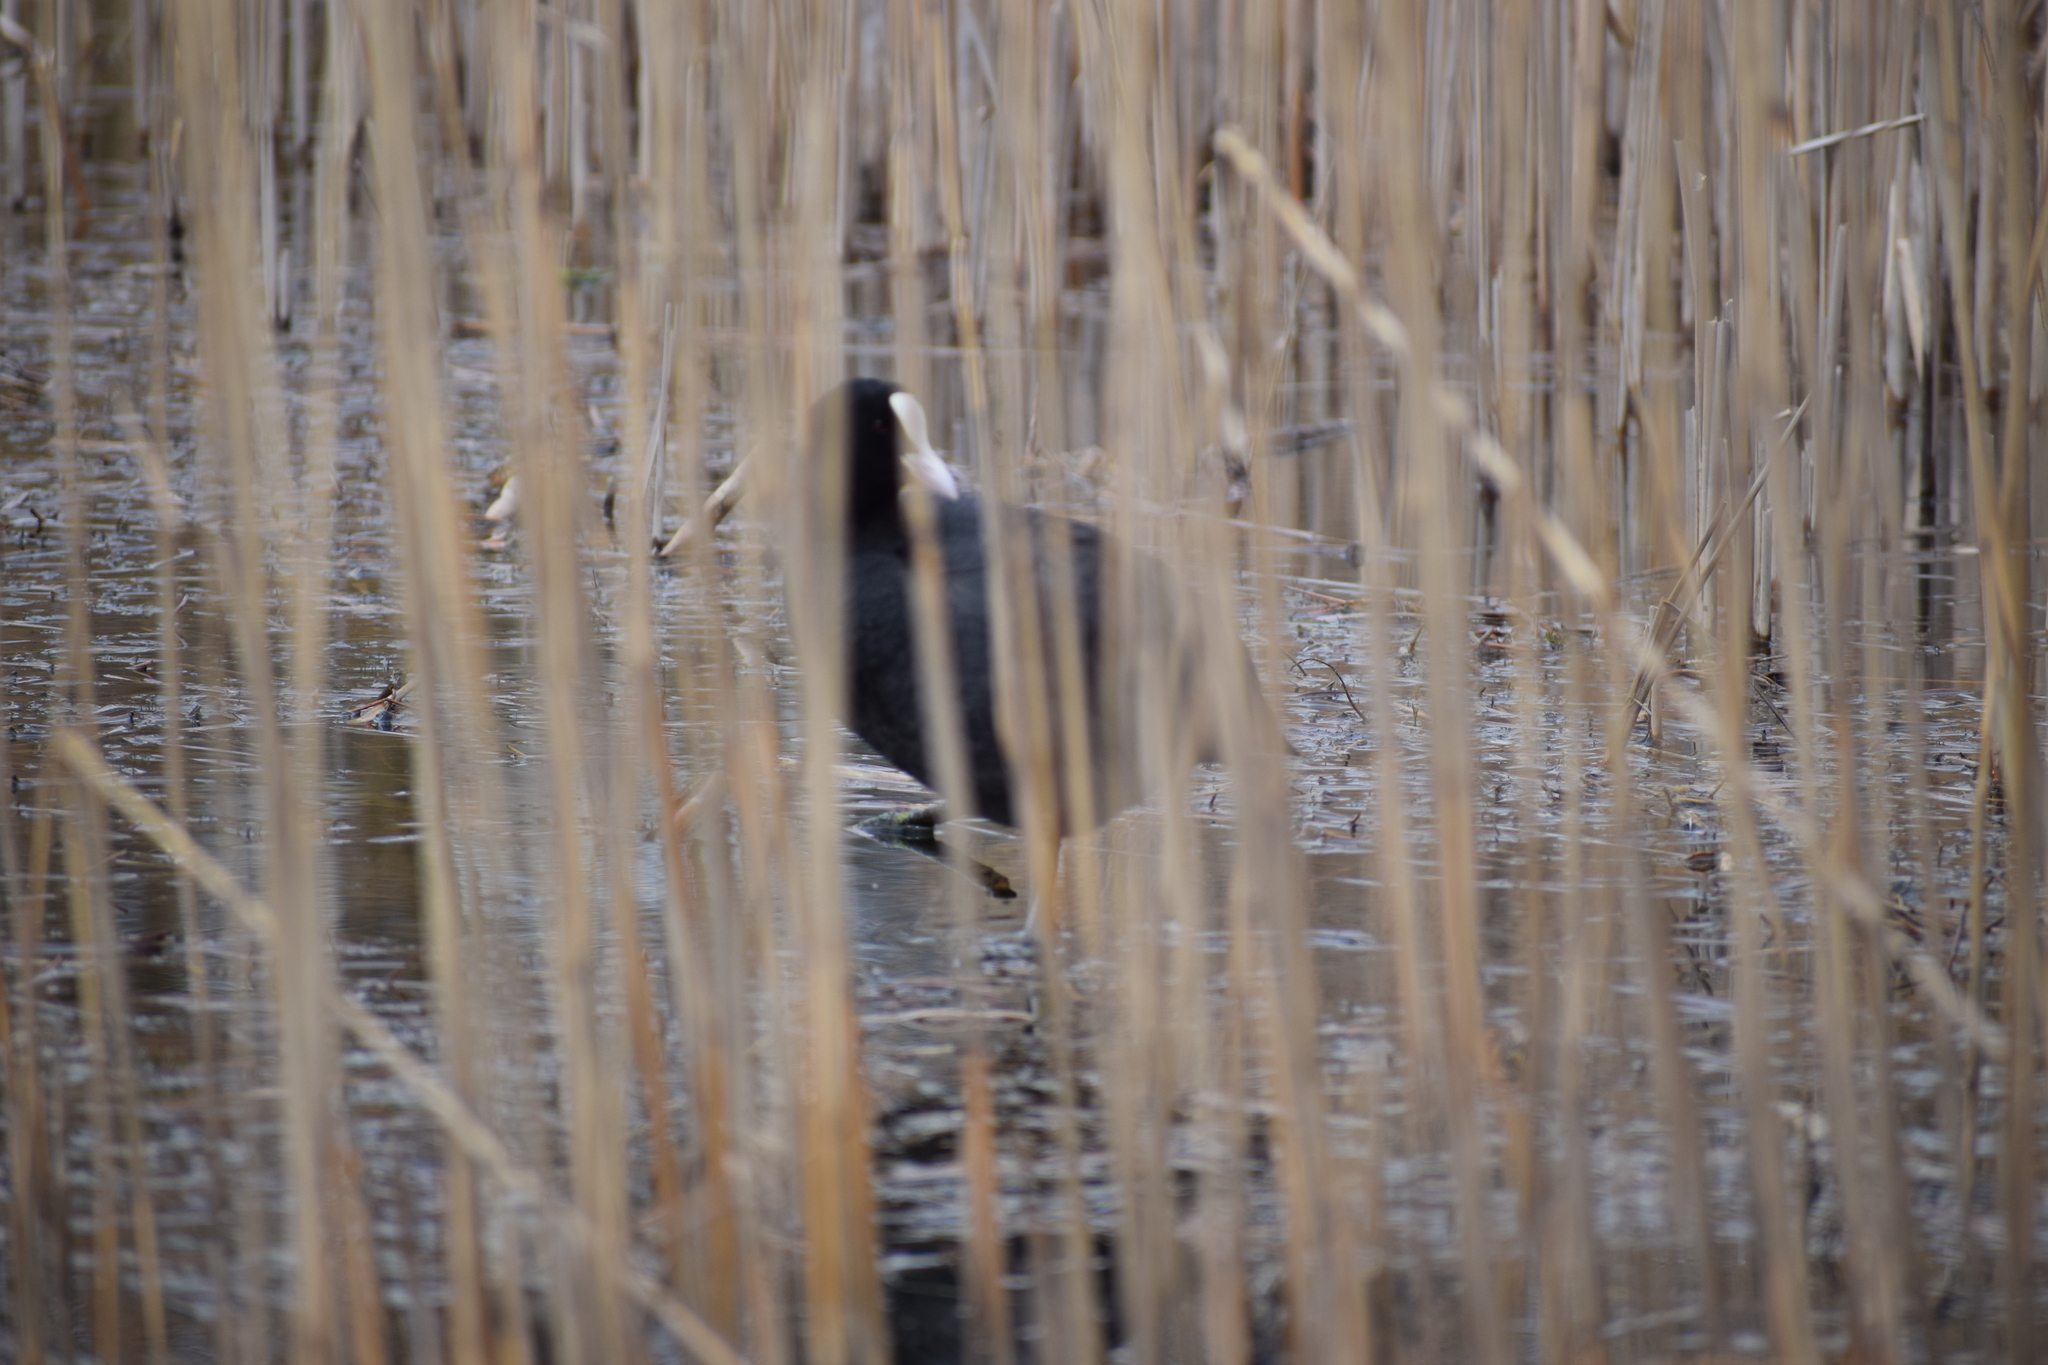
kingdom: Animalia
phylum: Chordata
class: Aves
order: Gruiformes
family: Rallidae
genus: Fulica
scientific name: Fulica atra
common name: Eurasian coot
